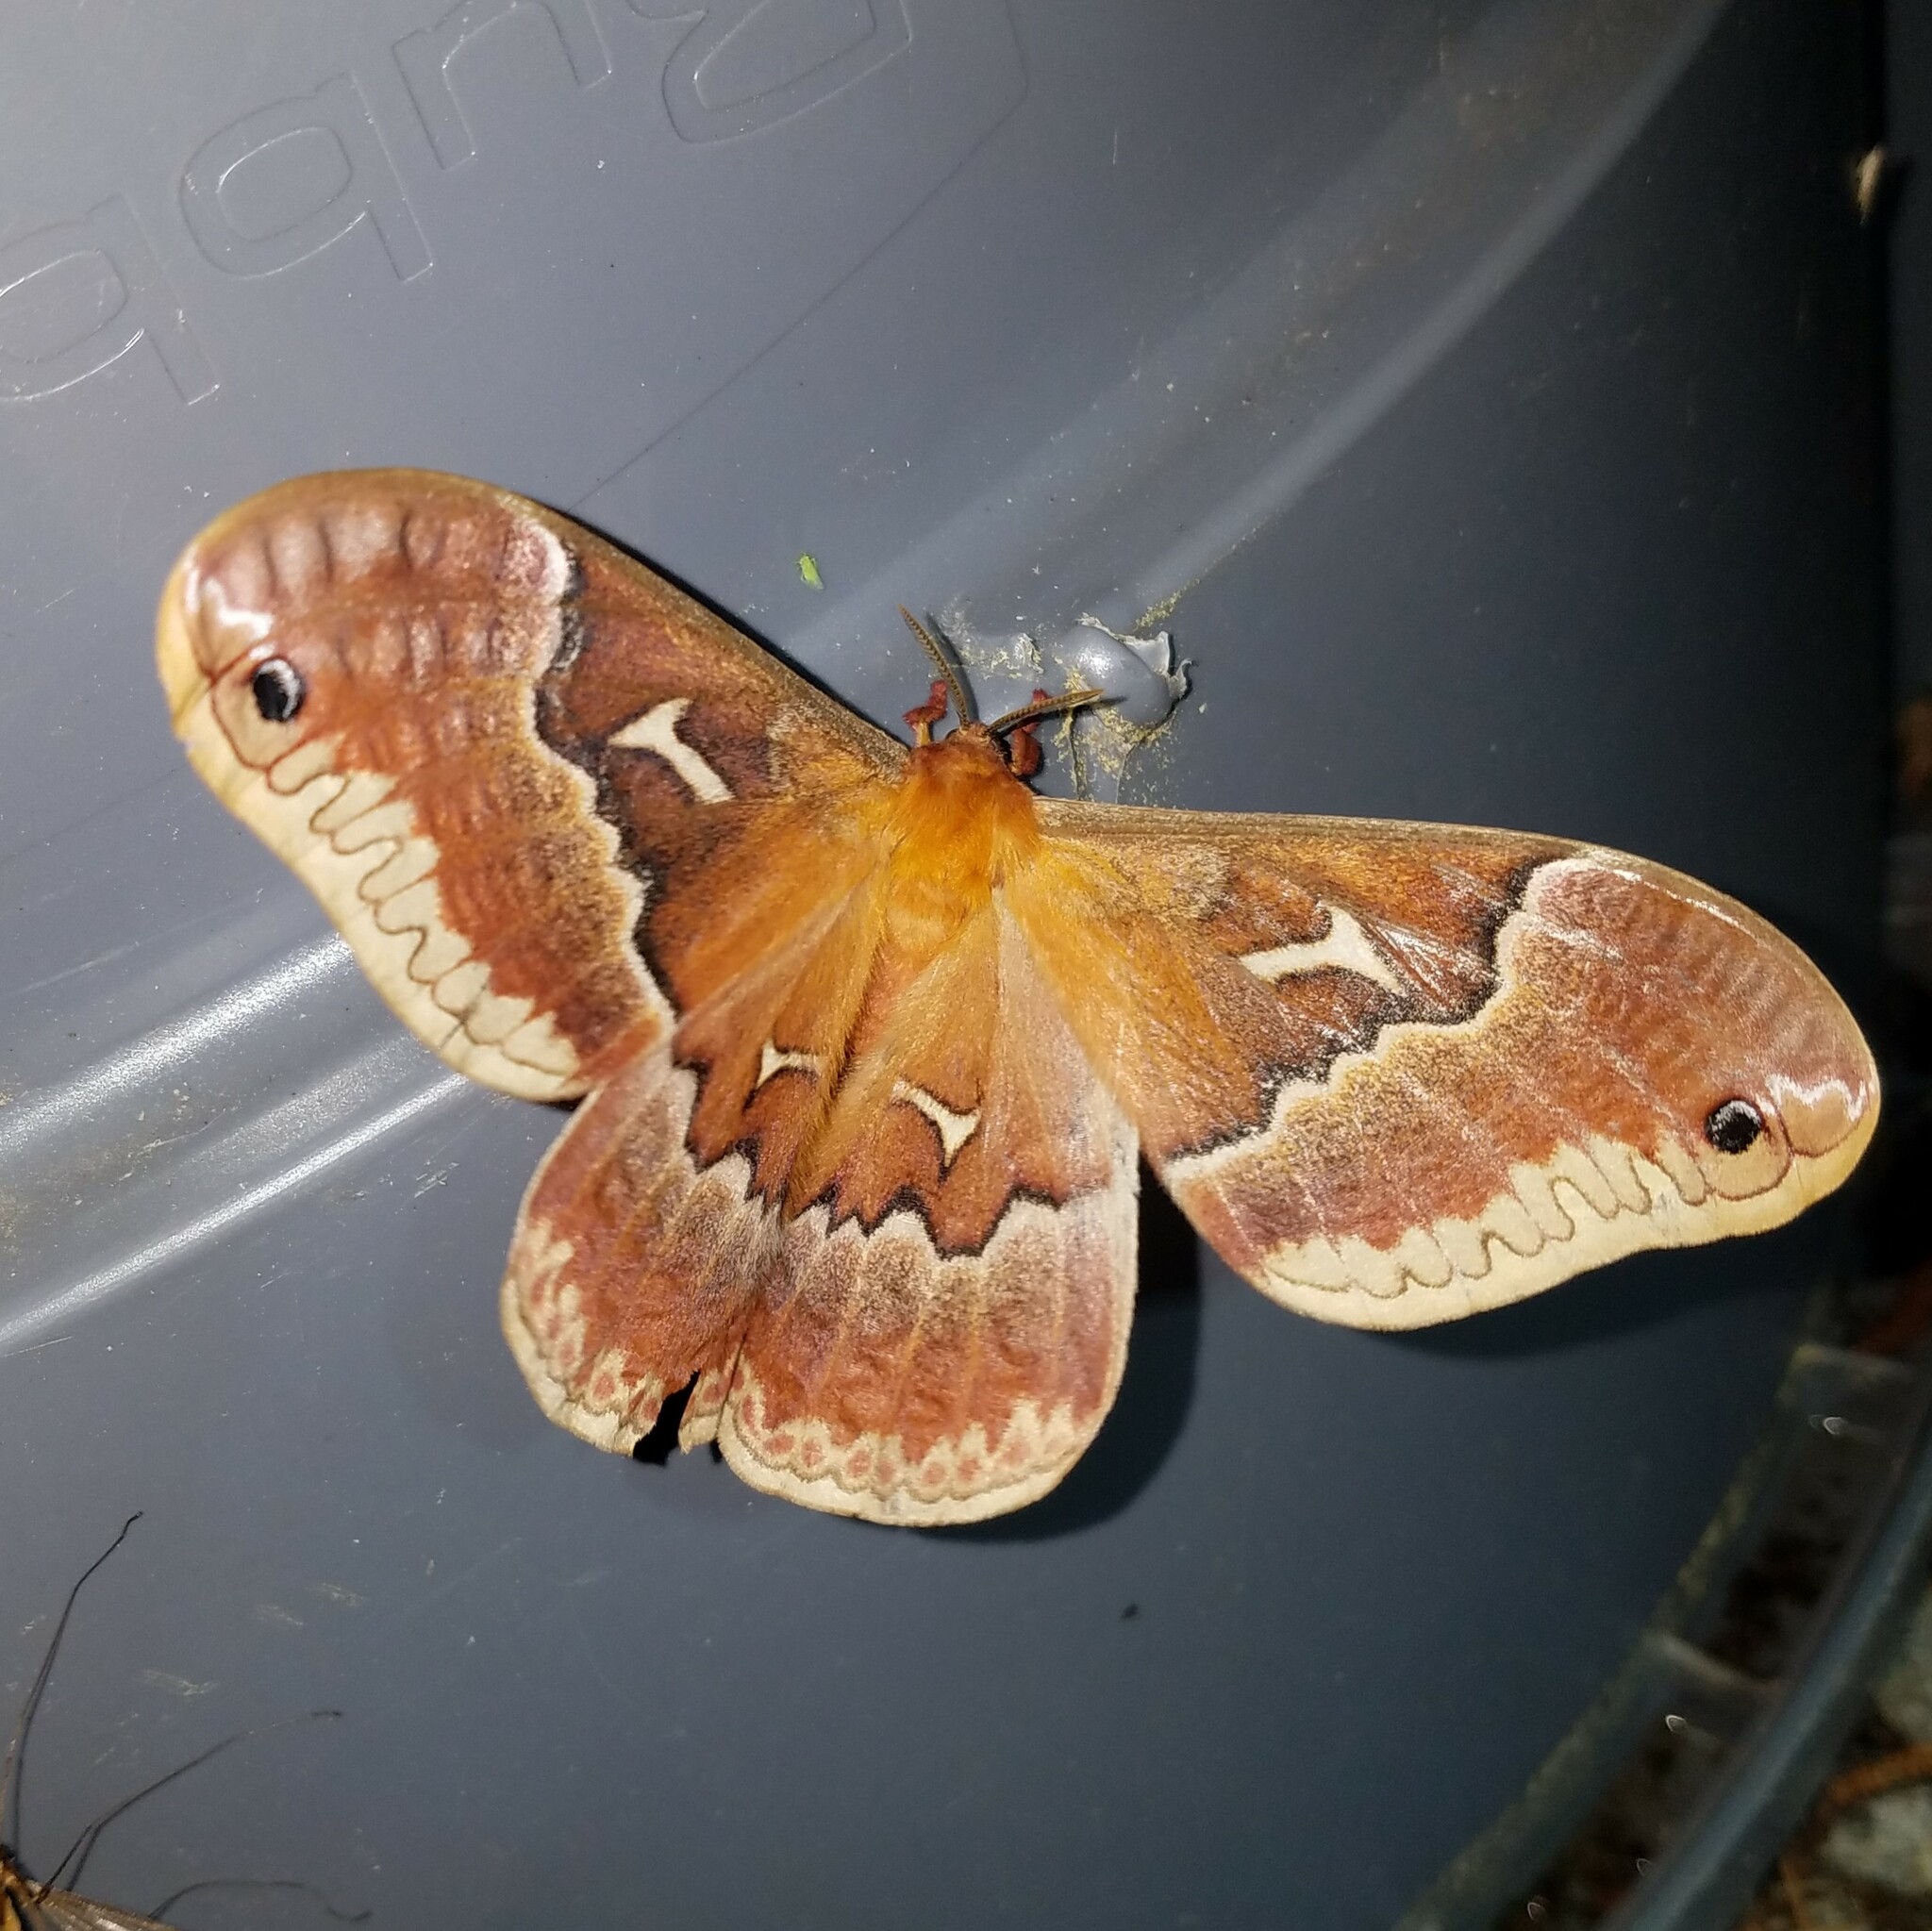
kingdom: Animalia
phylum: Arthropoda
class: Insecta
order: Lepidoptera
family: Saturniidae
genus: Callosamia
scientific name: Callosamia angulifera
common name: Tulip tree silkmoth
